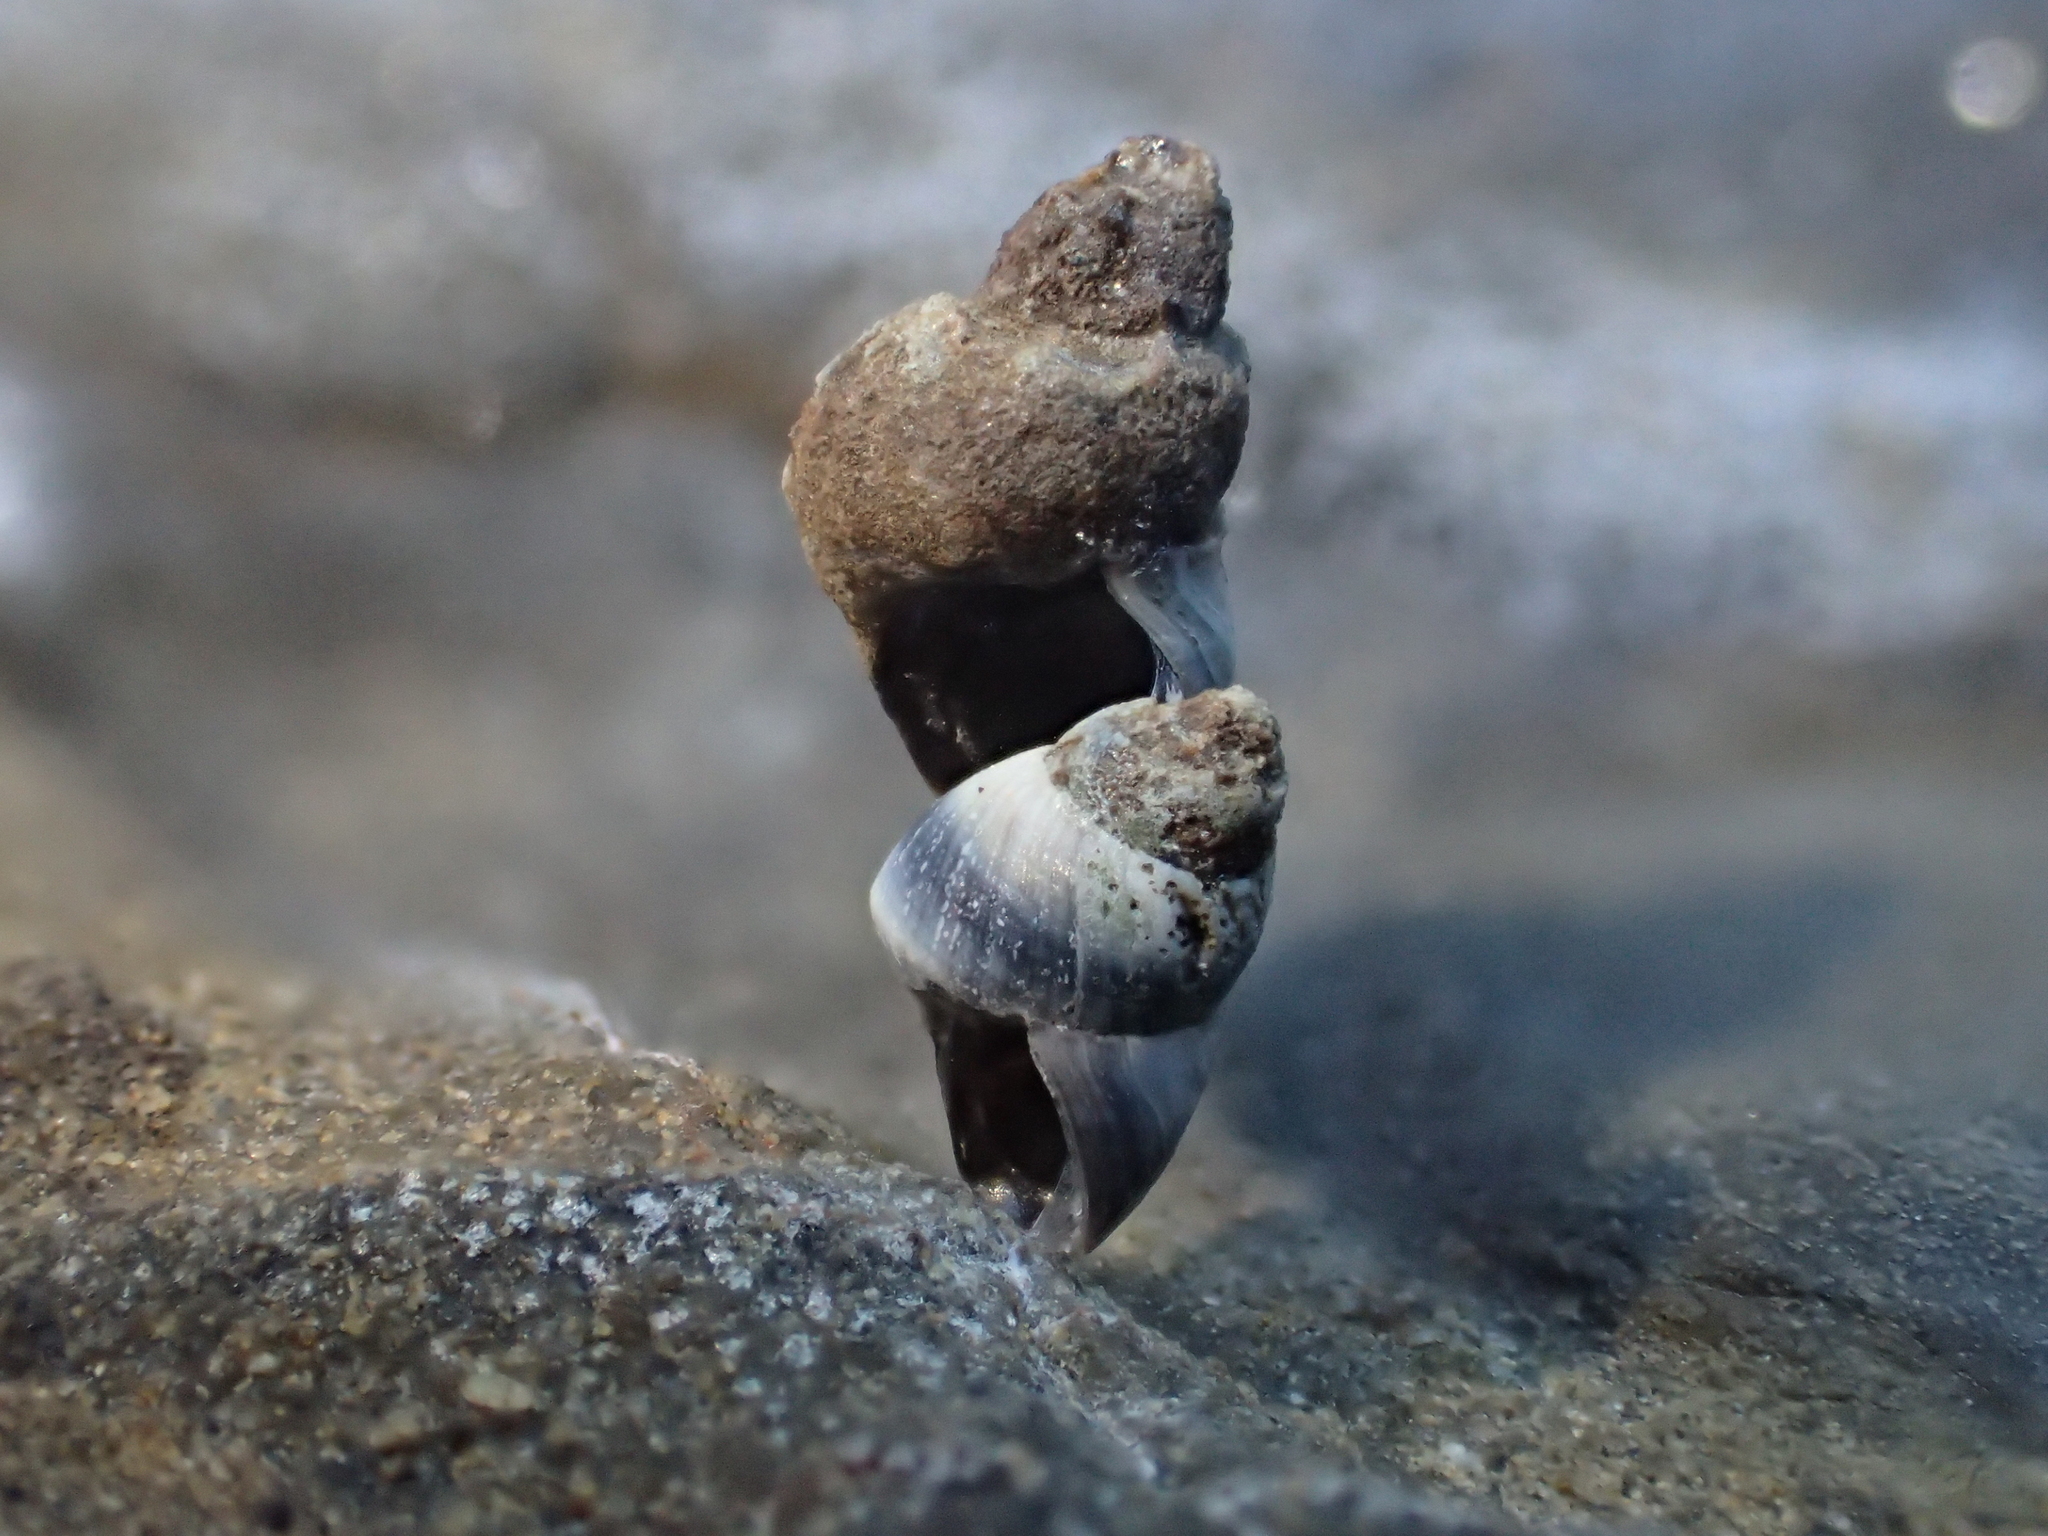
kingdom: Animalia
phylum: Mollusca
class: Gastropoda
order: Littorinimorpha
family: Littorinidae
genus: Austrolittorina
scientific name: Austrolittorina antipodum
